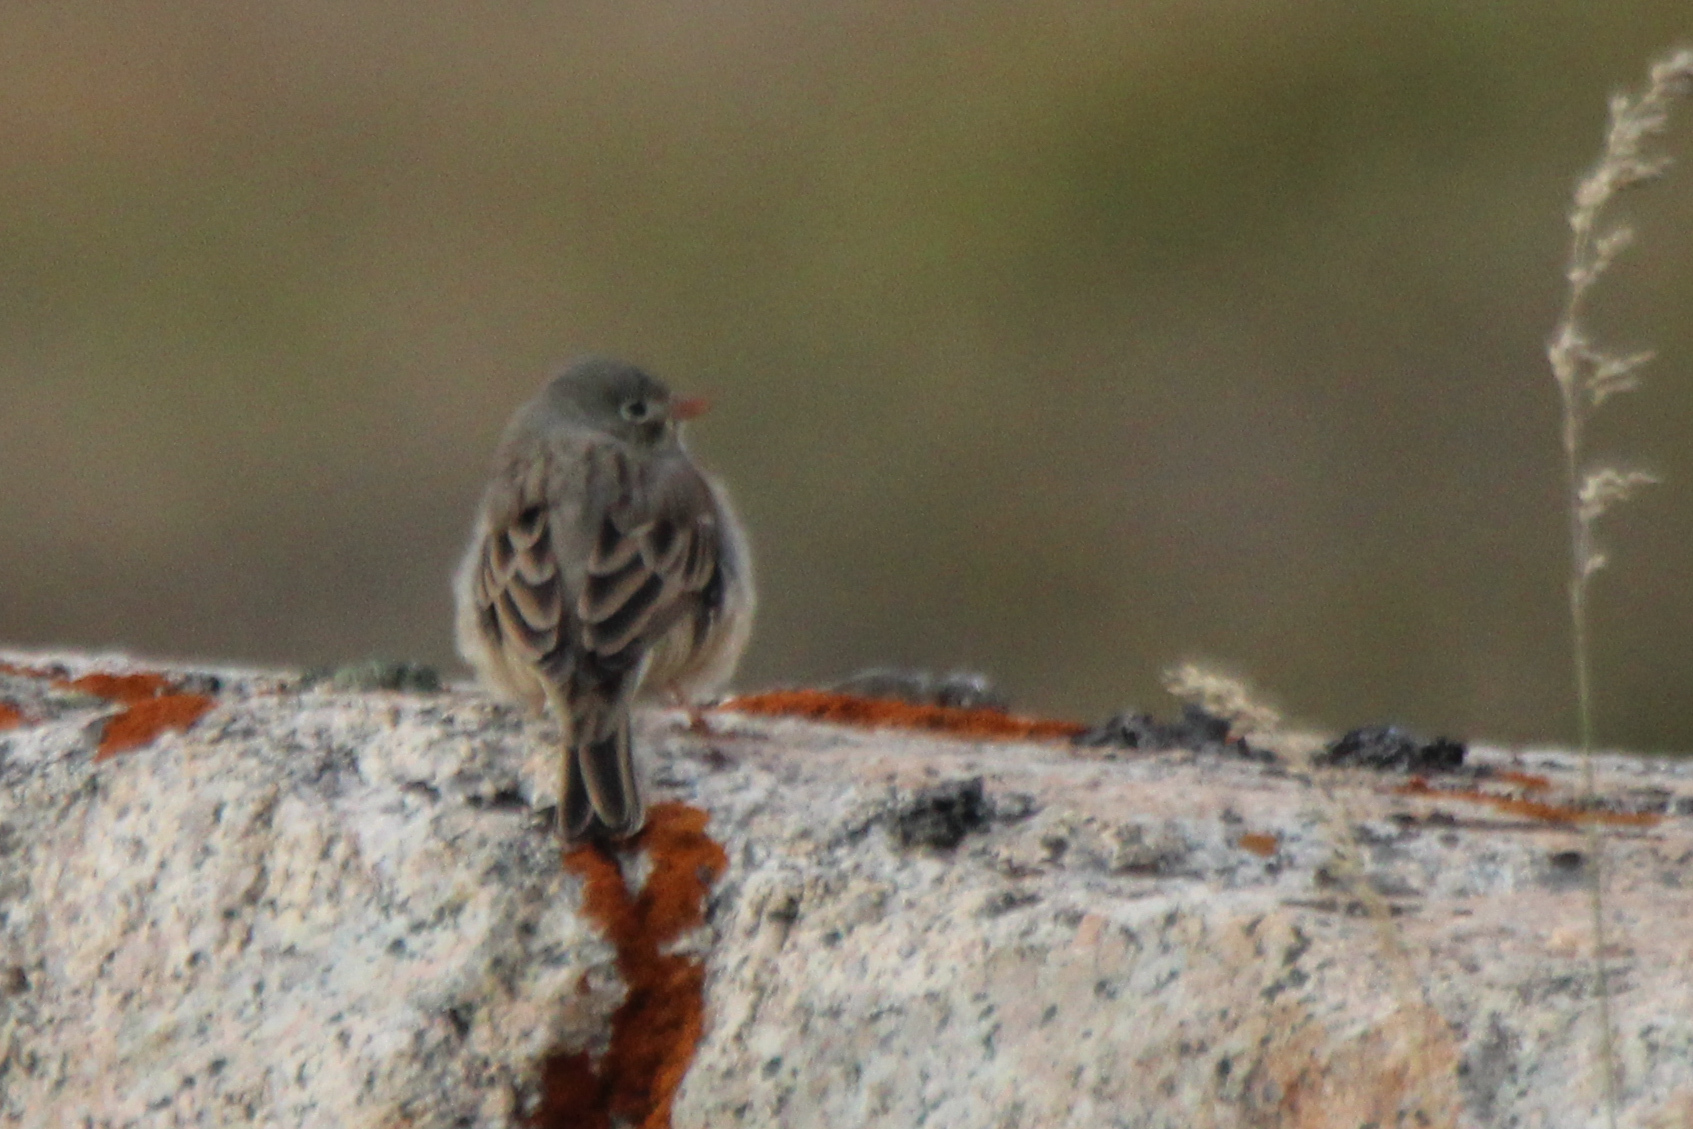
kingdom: Animalia
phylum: Chordata
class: Aves
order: Passeriformes
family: Emberizidae
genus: Emberiza
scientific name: Emberiza buchanani
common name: Grey-necked bunting
